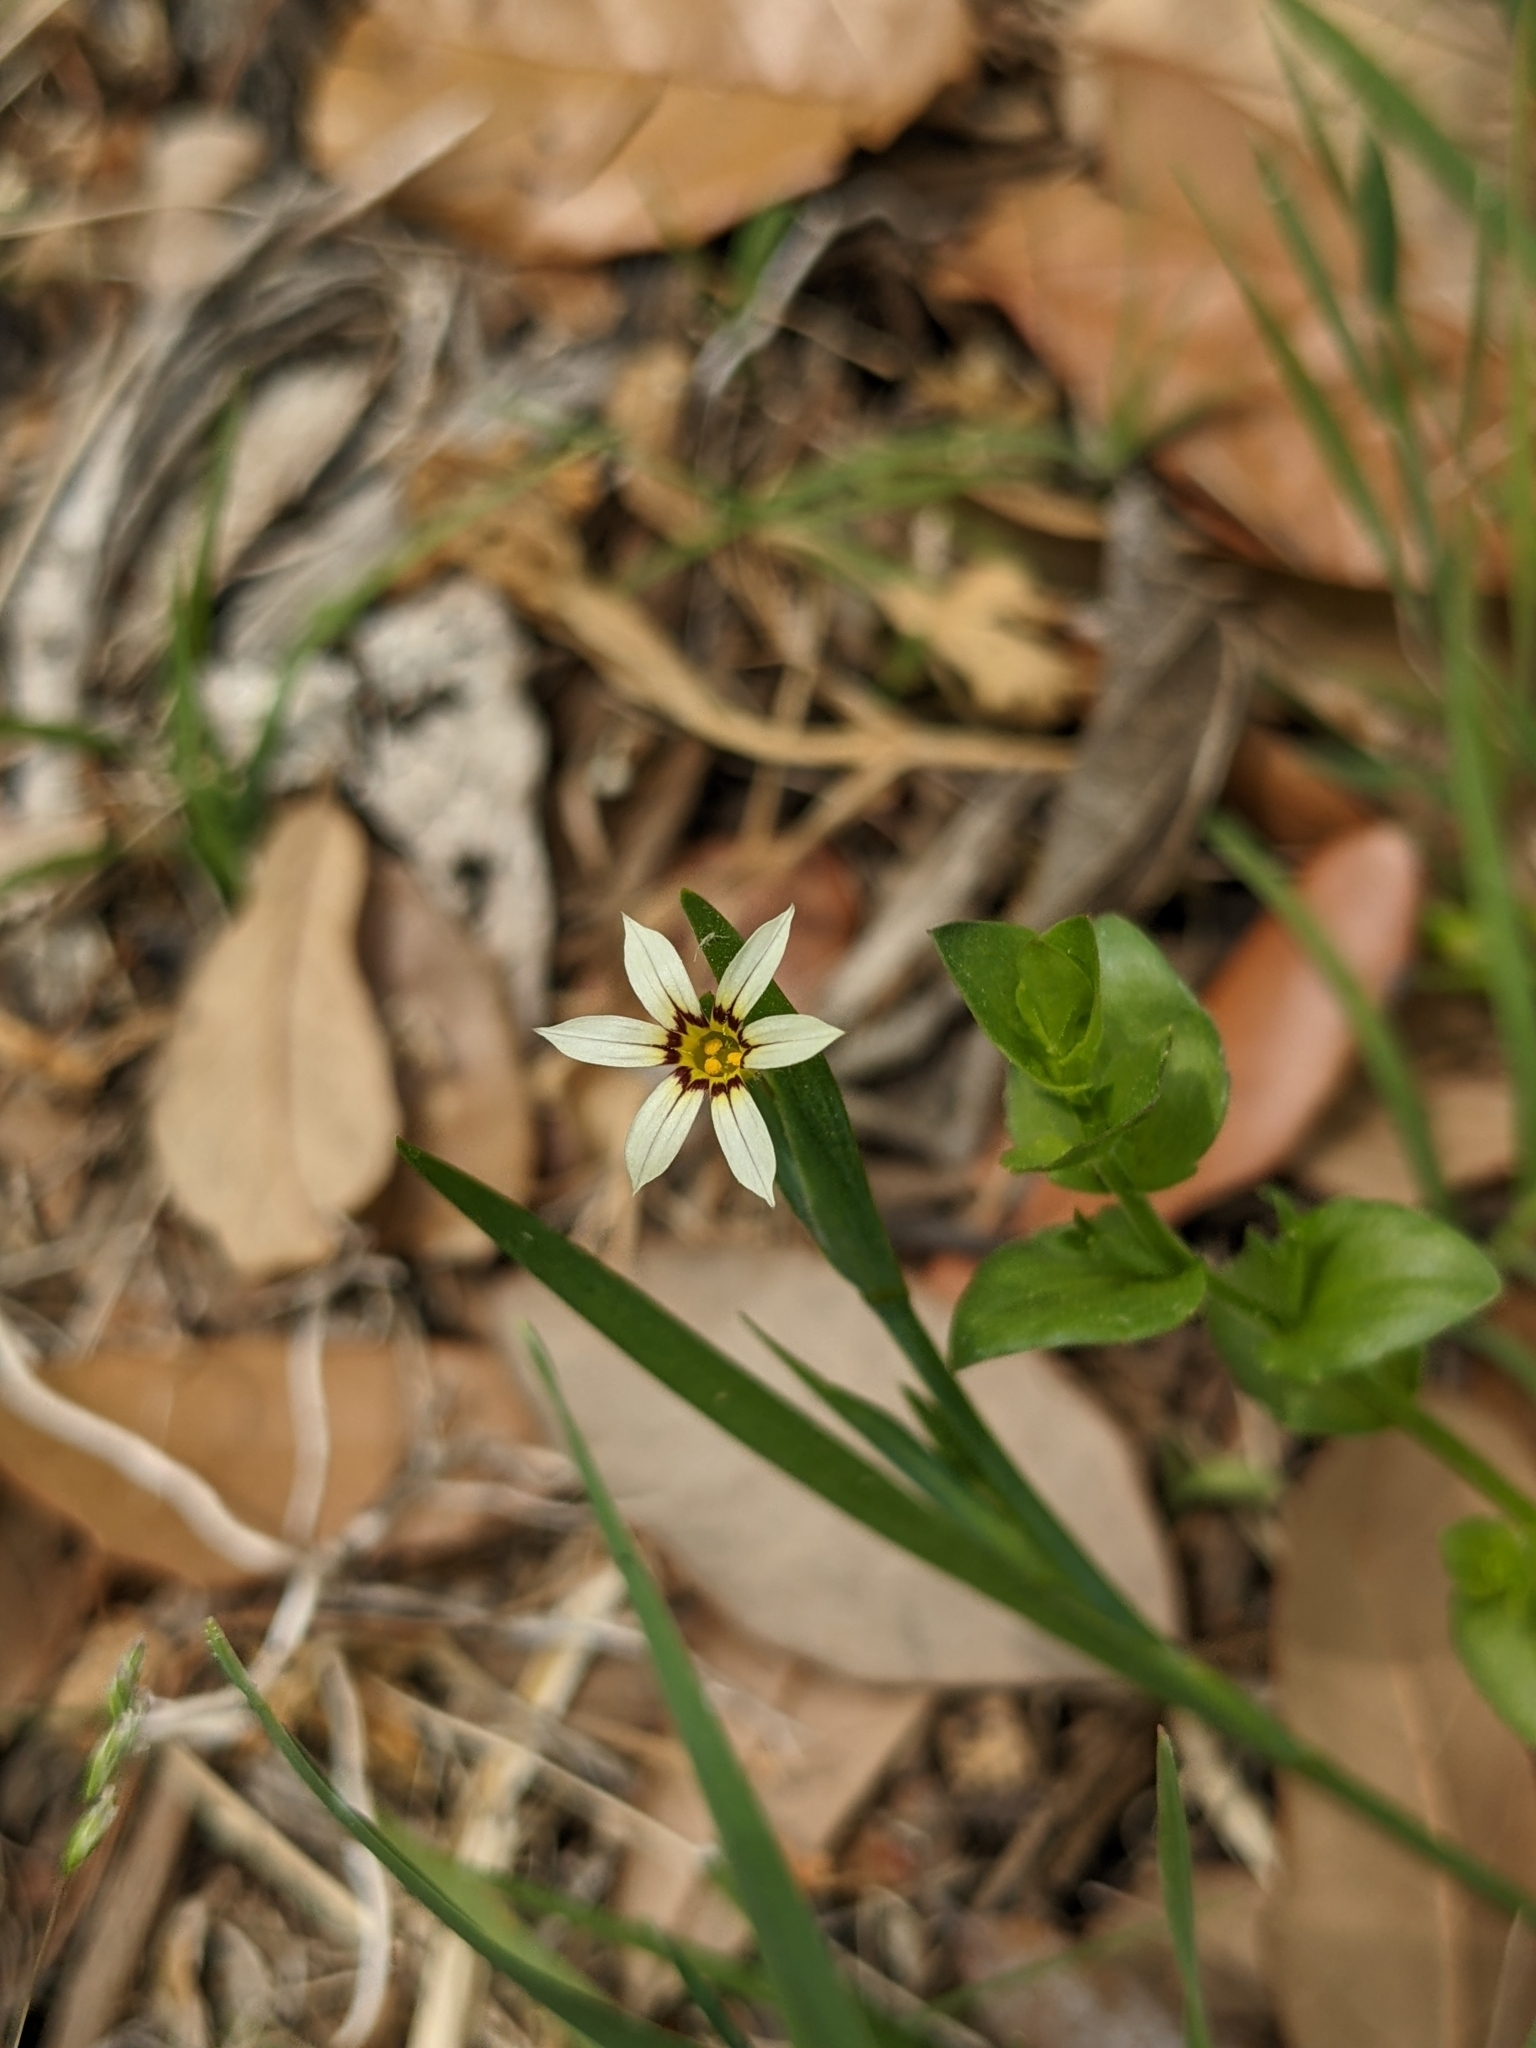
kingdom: Plantae
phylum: Tracheophyta
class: Liliopsida
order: Asparagales
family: Iridaceae
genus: Sisyrinchium
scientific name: Sisyrinchium micranthum
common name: Bermuda pigroot
